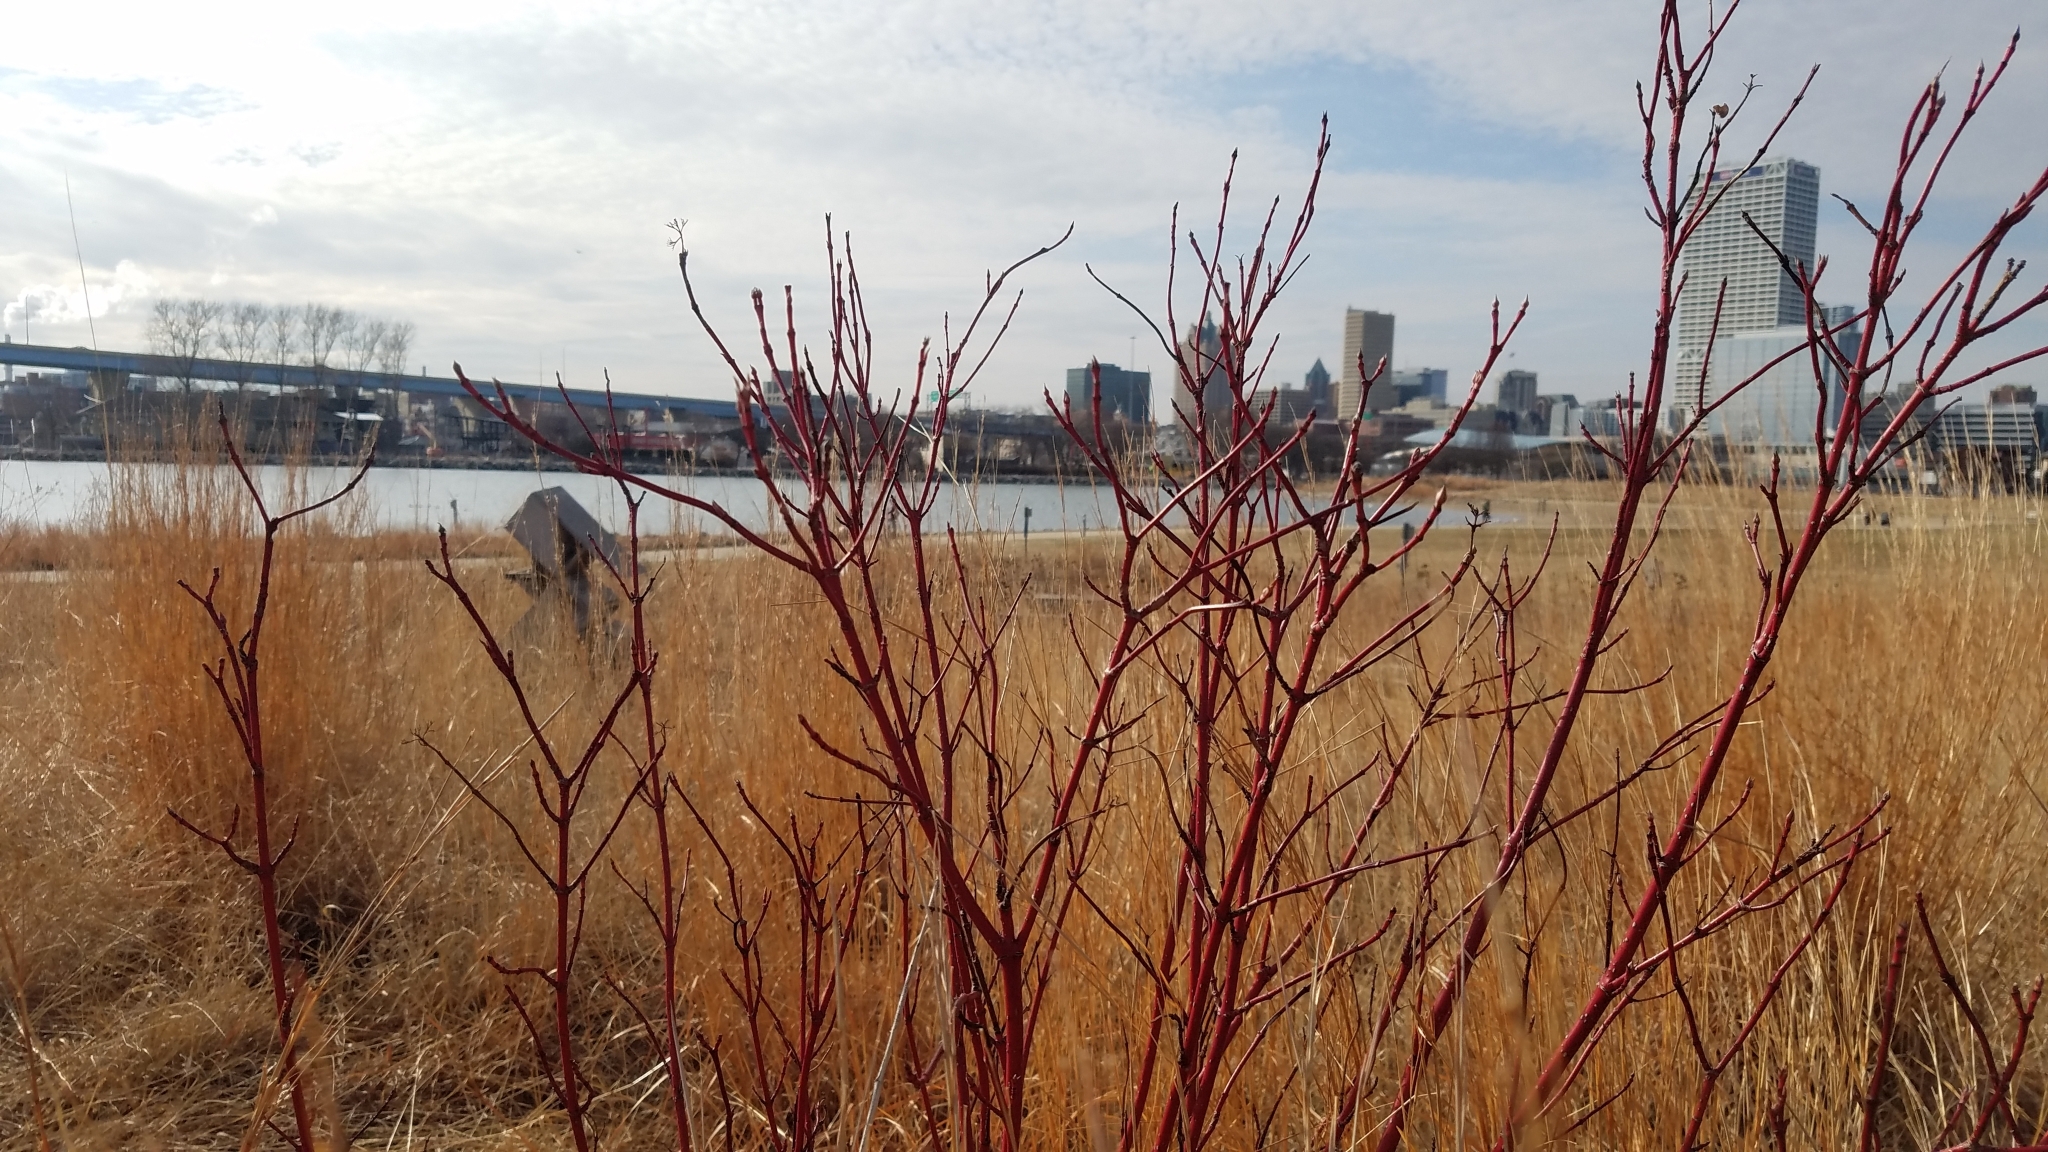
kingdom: Plantae
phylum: Tracheophyta
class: Magnoliopsida
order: Cornales
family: Cornaceae
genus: Cornus
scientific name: Cornus sericea
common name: Red-osier dogwood
